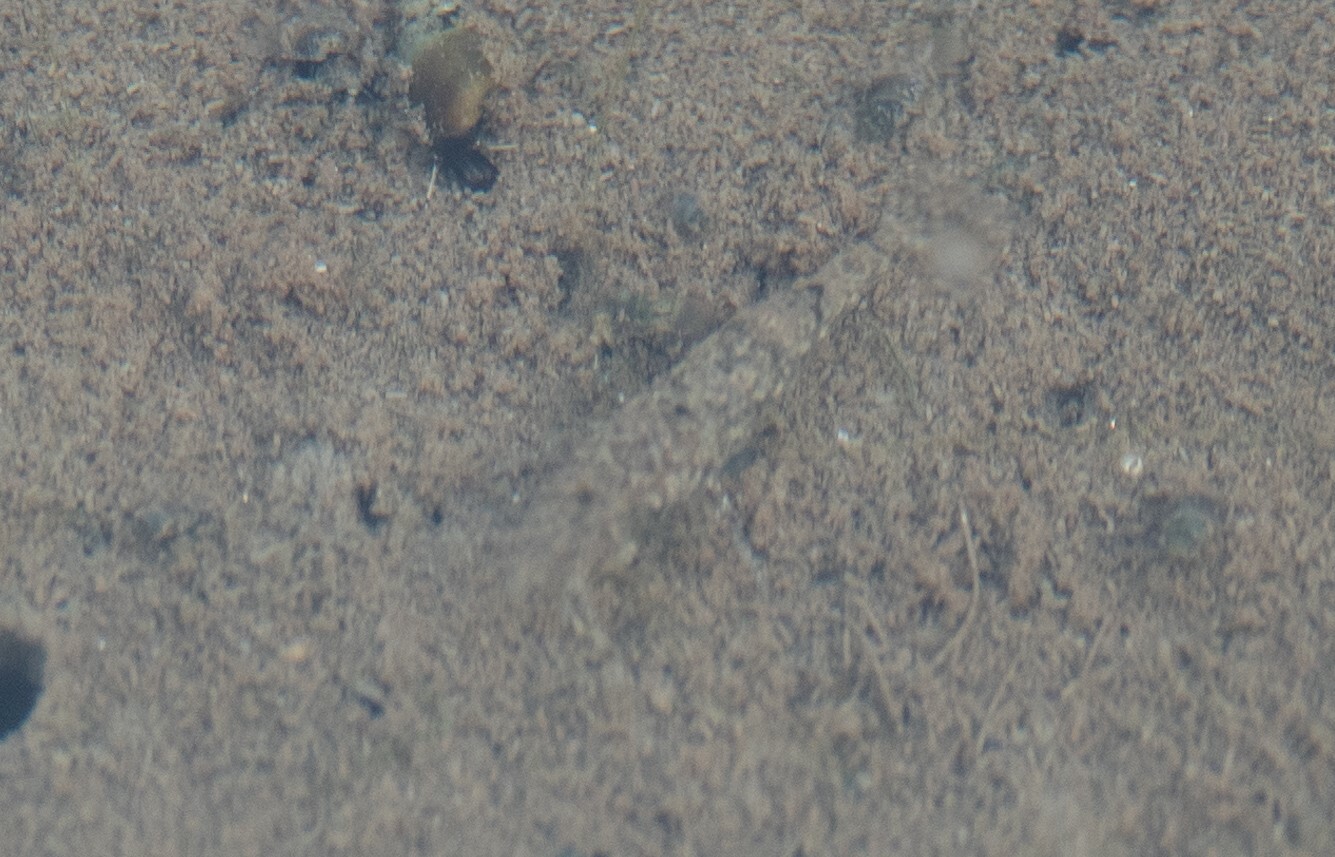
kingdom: Animalia
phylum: Arthropoda
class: Malacostraca
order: Decapoda
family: Crangonidae
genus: Crangon
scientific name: Crangon crangon
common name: Brown shrimp
